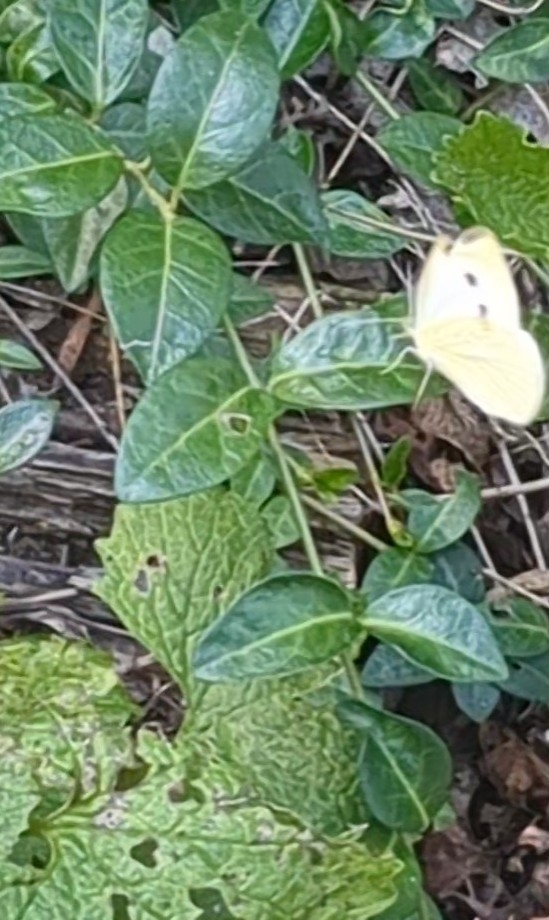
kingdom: Plantae
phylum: Tracheophyta
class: Magnoliopsida
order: Brassicales
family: Brassicaceae
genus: Alliaria
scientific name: Alliaria petiolata
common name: Garlic mustard
